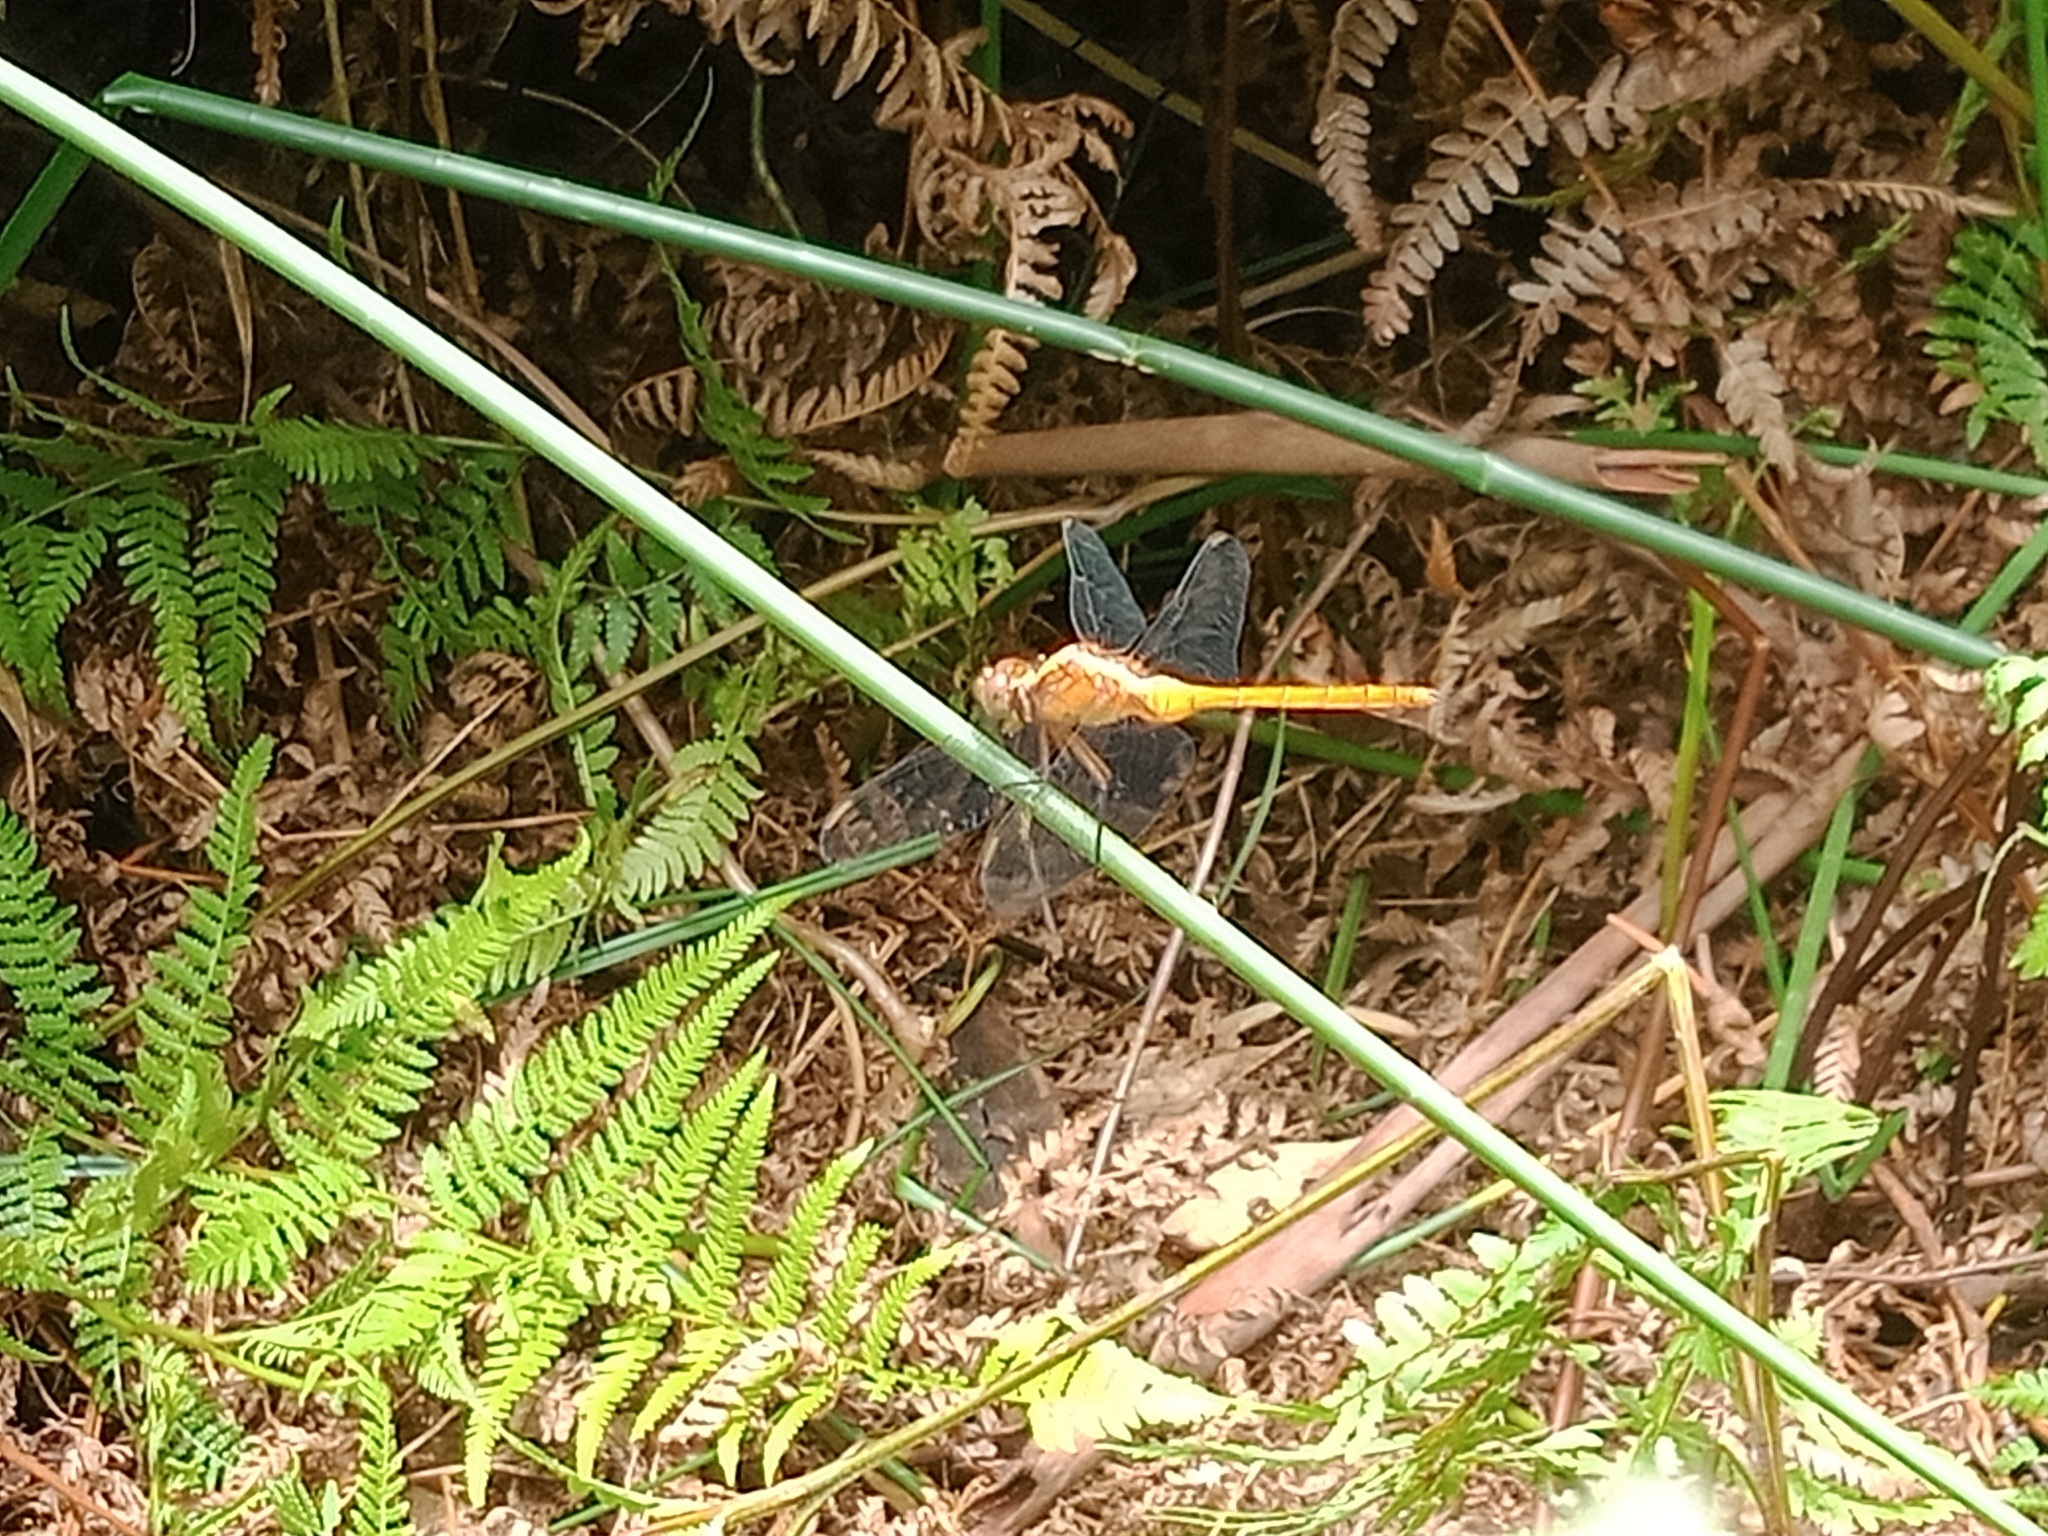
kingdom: Animalia
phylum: Arthropoda
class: Insecta
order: Odonata
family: Libellulidae
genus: Orthetrum
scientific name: Orthetrum villosovittatum
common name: Firery skimmer
